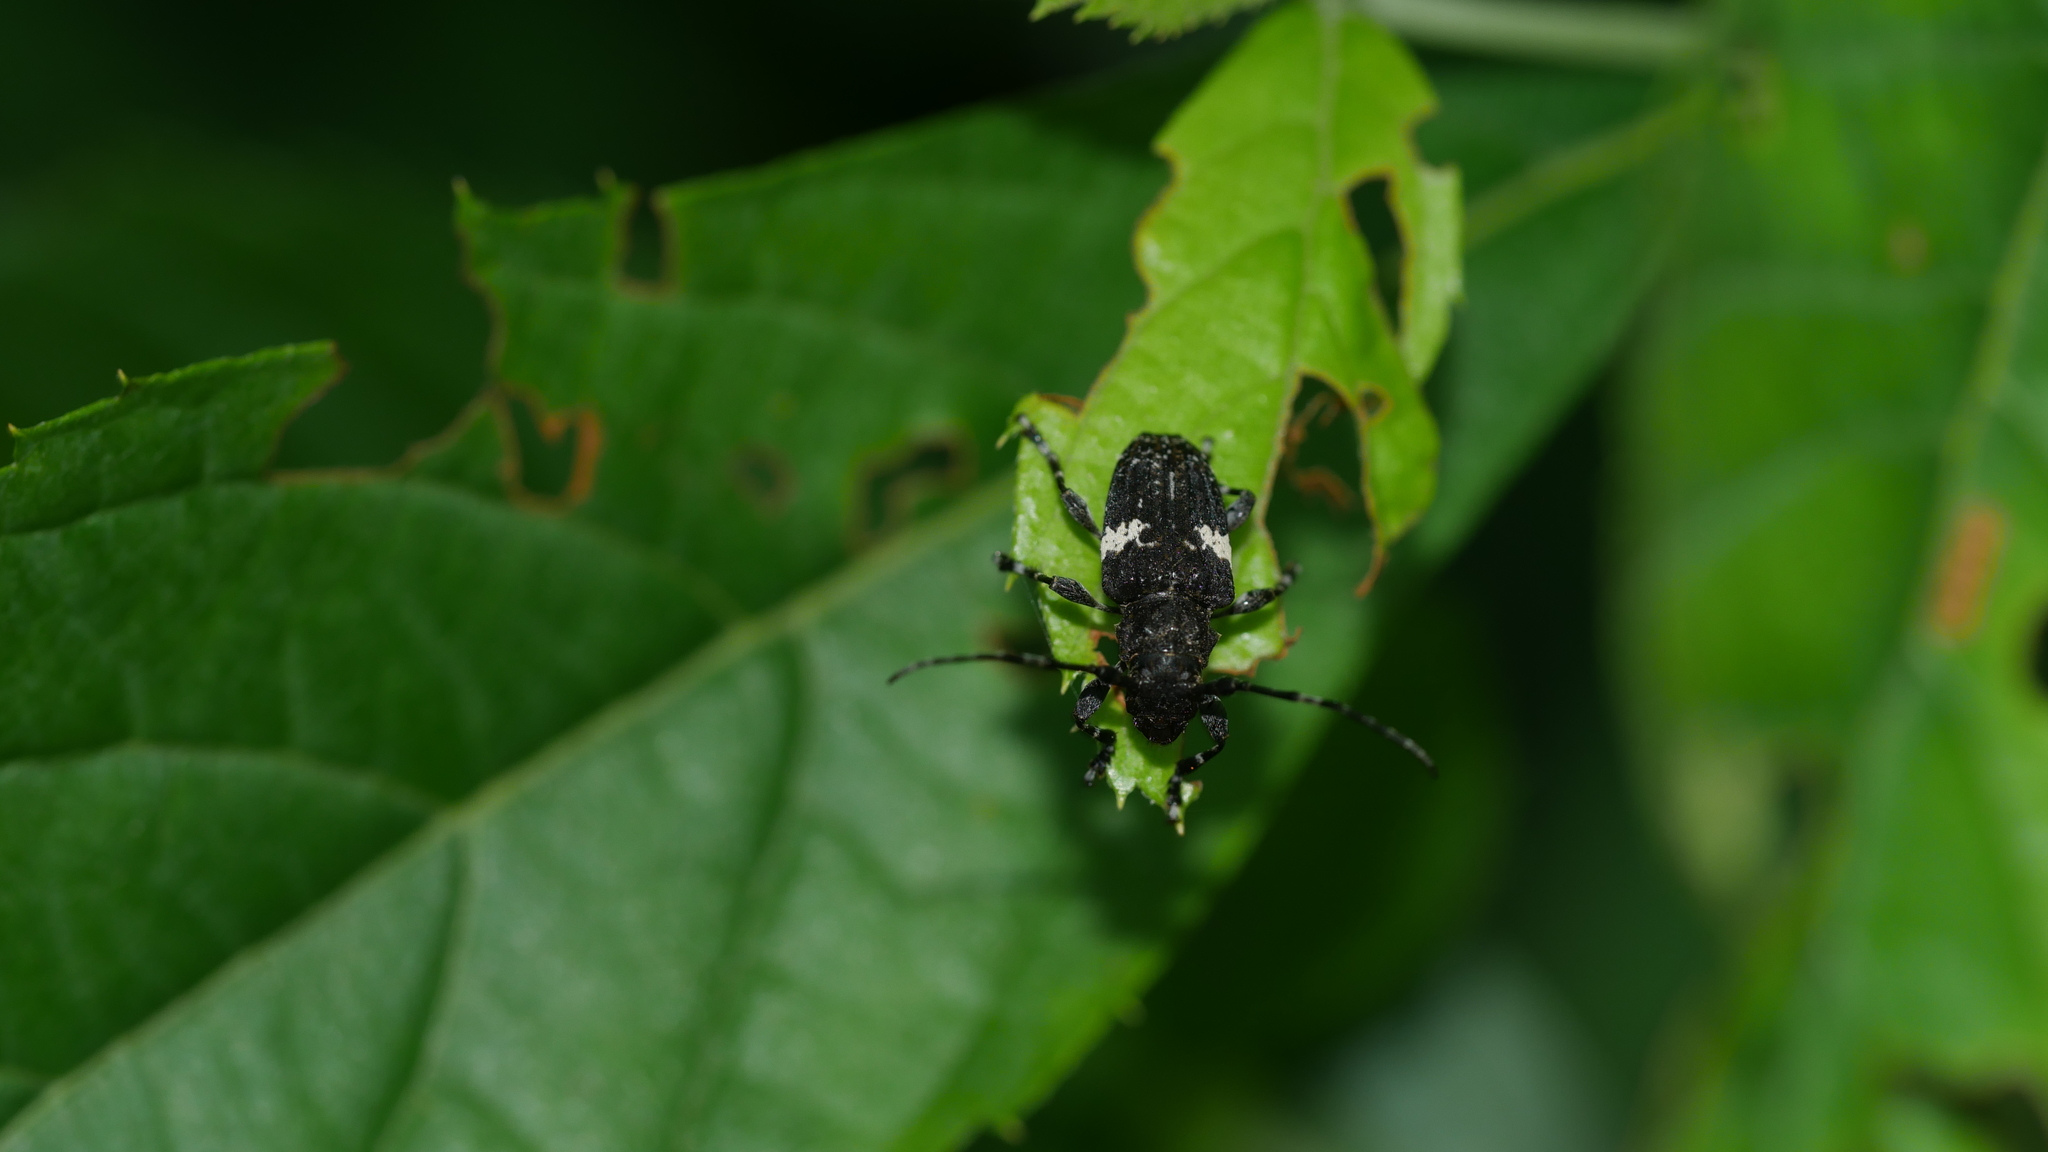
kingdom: Animalia
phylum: Arthropoda
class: Insecta
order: Coleoptera
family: Cerambycidae
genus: Acanthoderes
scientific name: Acanthoderes quadrigibba
